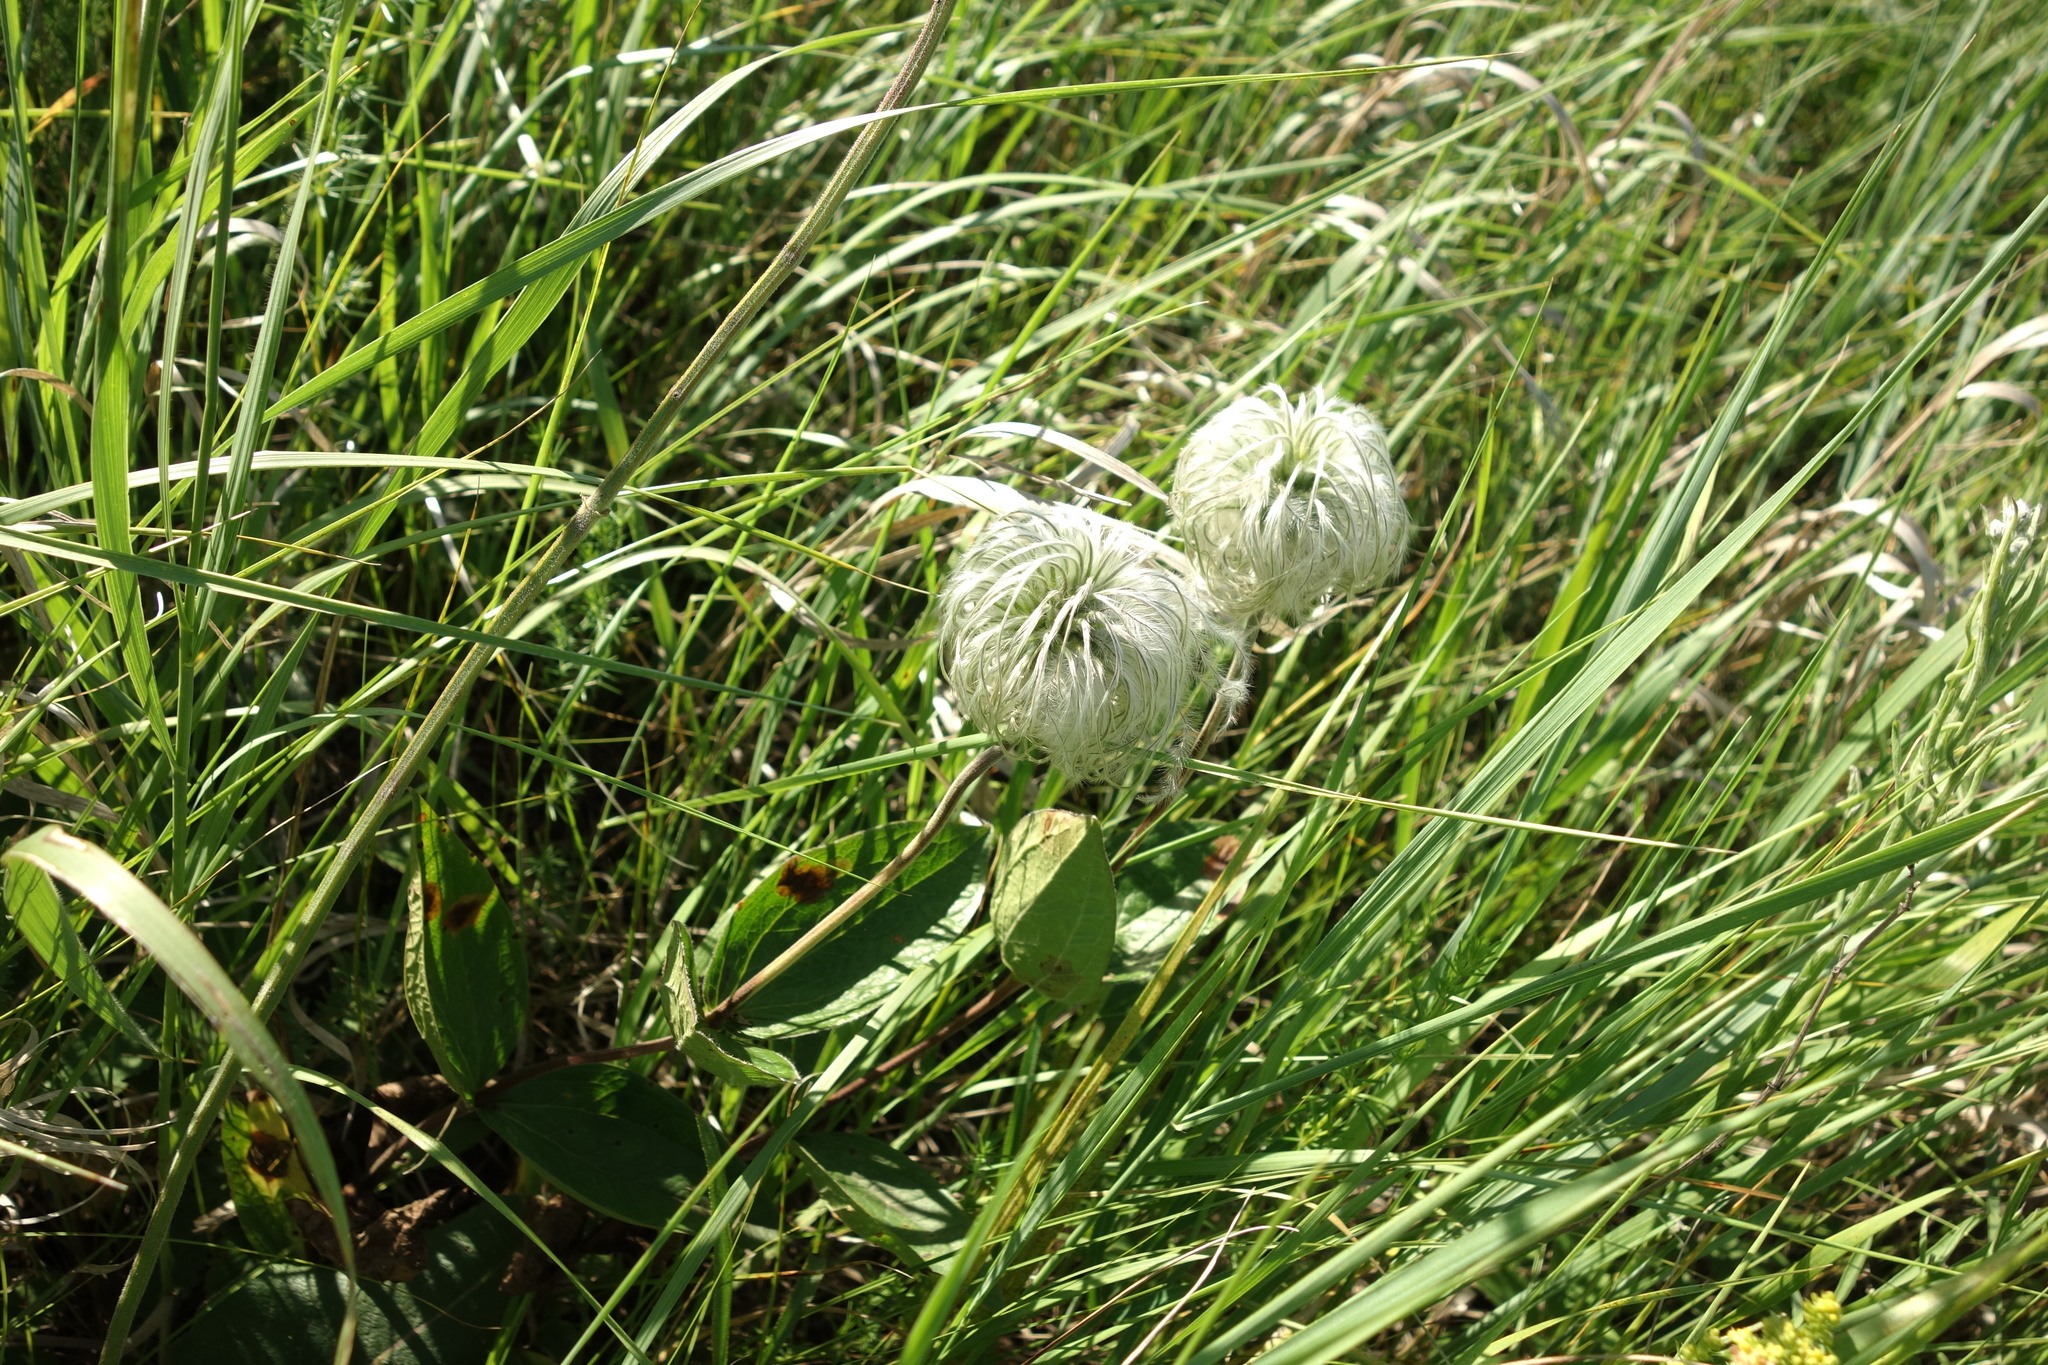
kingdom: Plantae
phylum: Tracheophyta
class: Magnoliopsida
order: Ranunculales
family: Ranunculaceae
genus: Clematis
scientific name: Clematis integrifolia
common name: Solitary clematis
